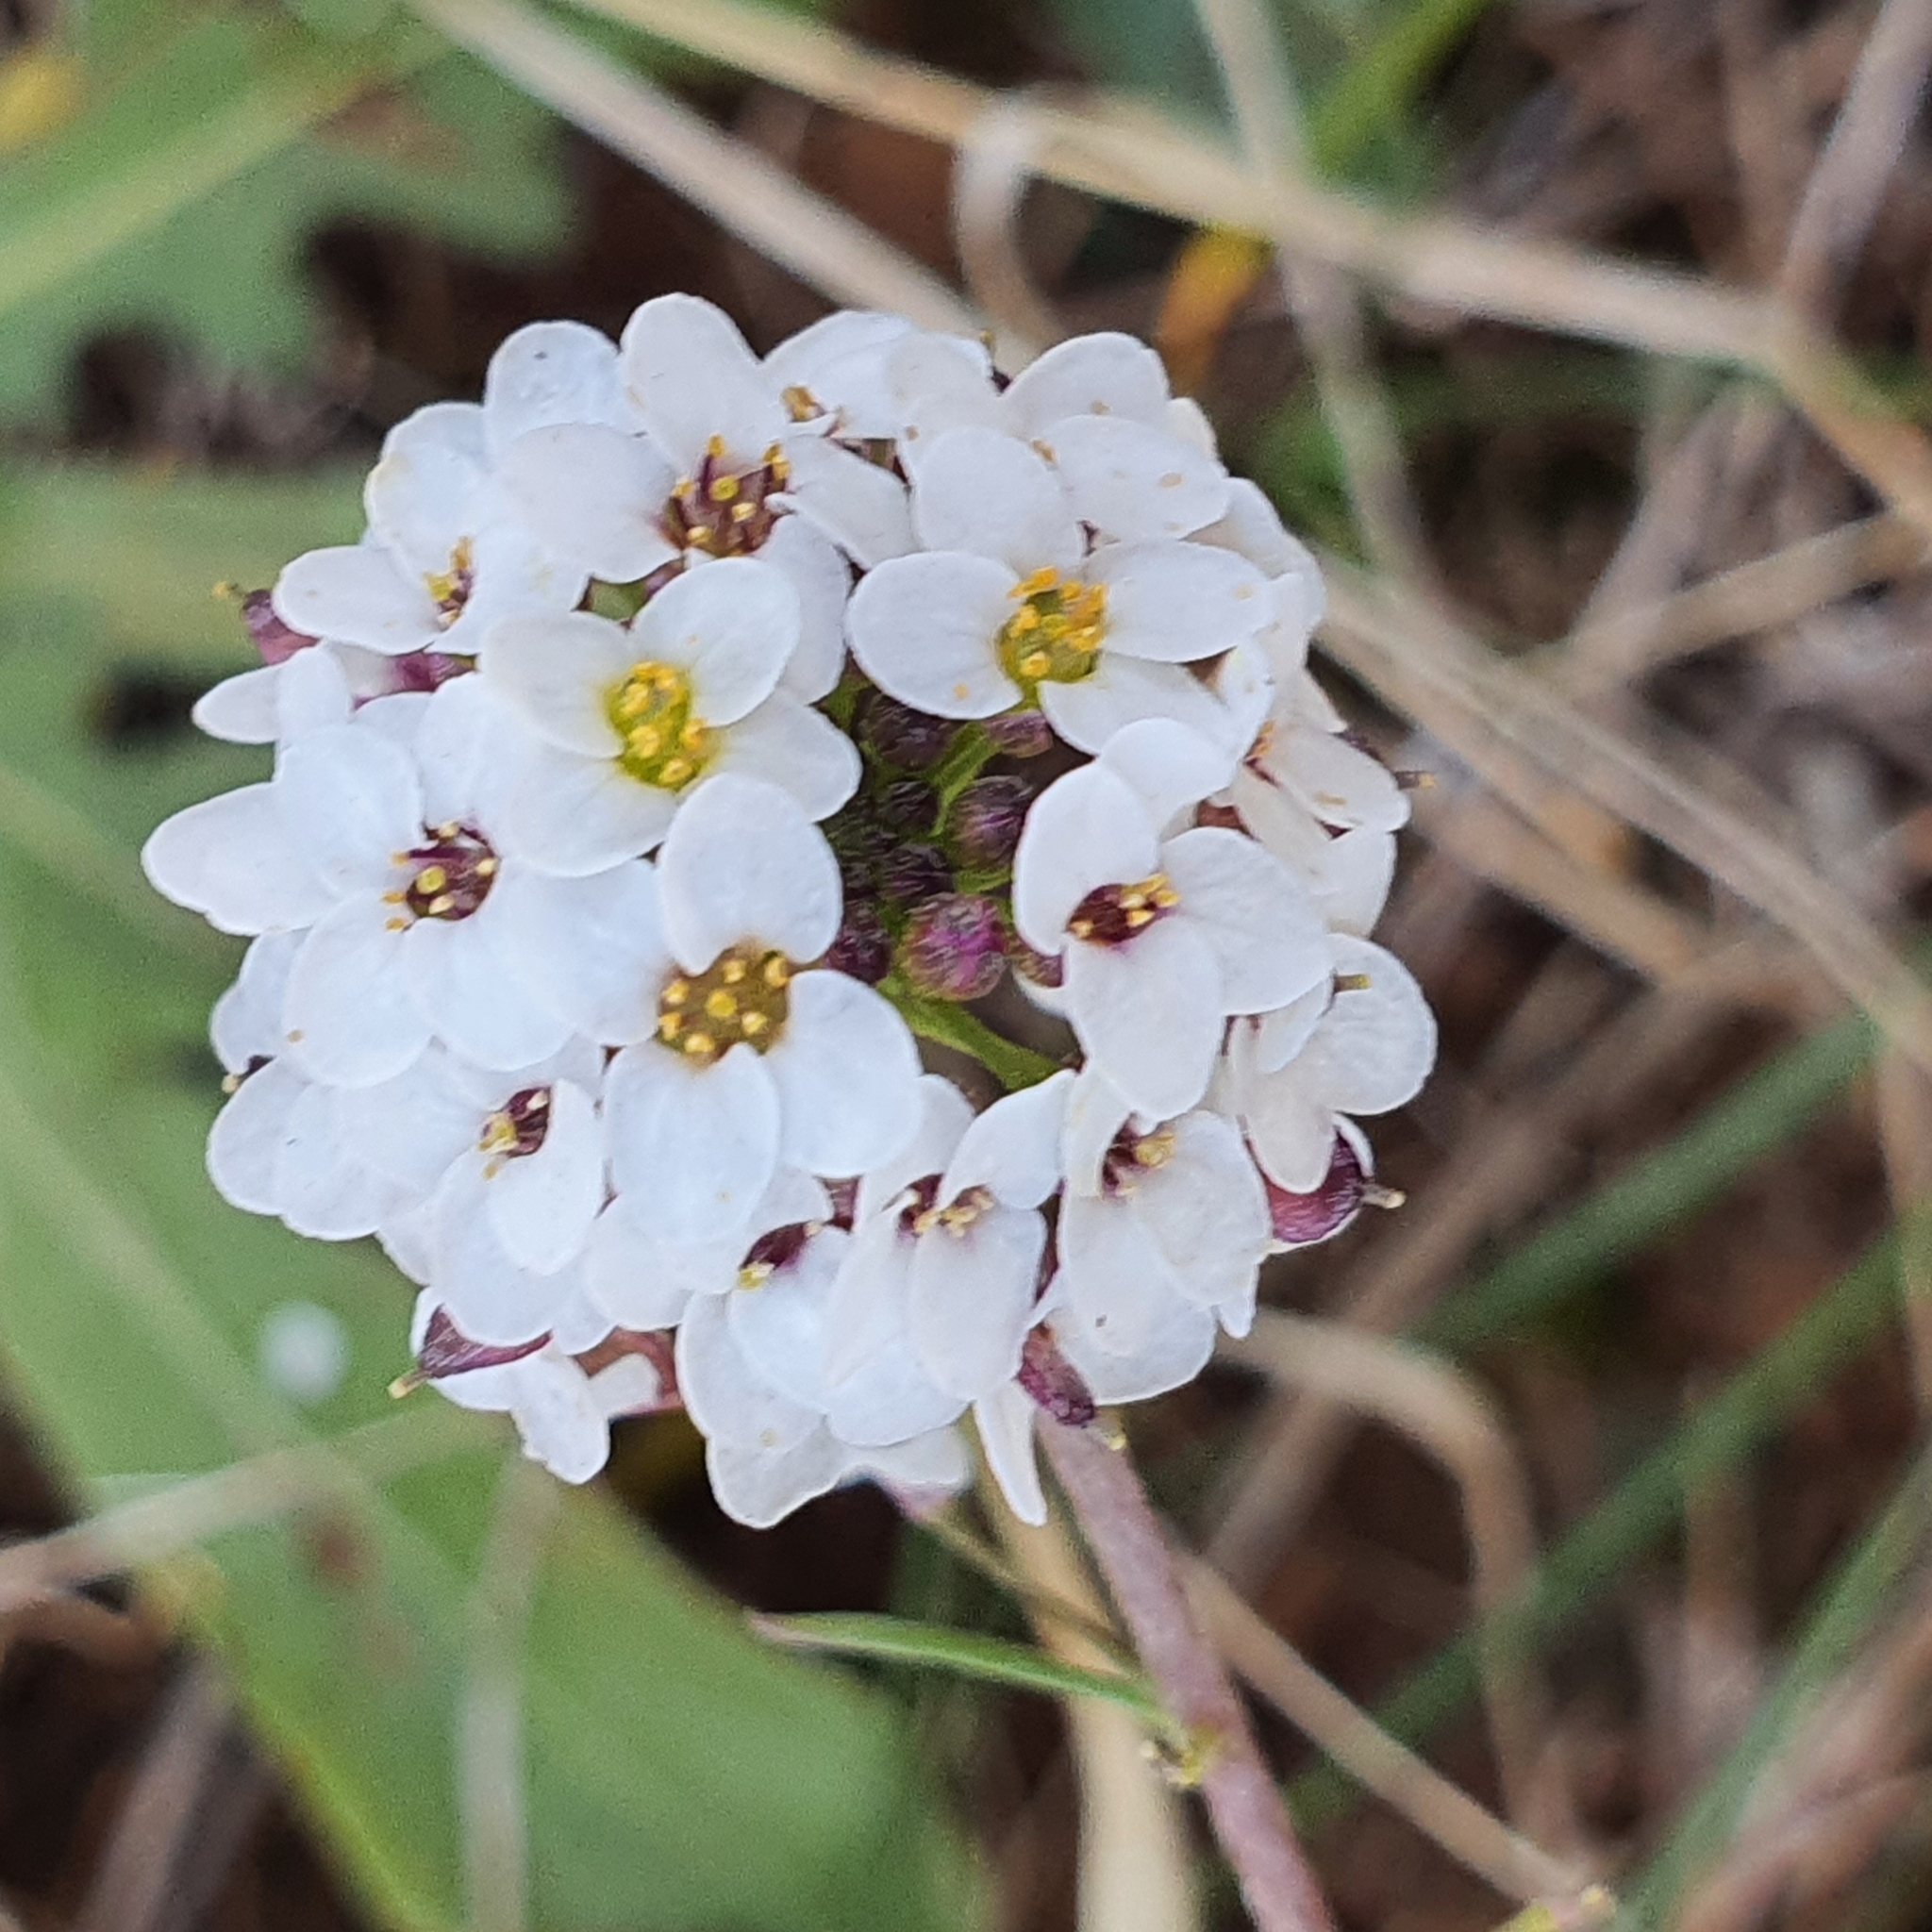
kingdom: Plantae
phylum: Tracheophyta
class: Magnoliopsida
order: Brassicales
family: Brassicaceae
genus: Lobularia
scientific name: Lobularia maritima
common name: Sweet alison
